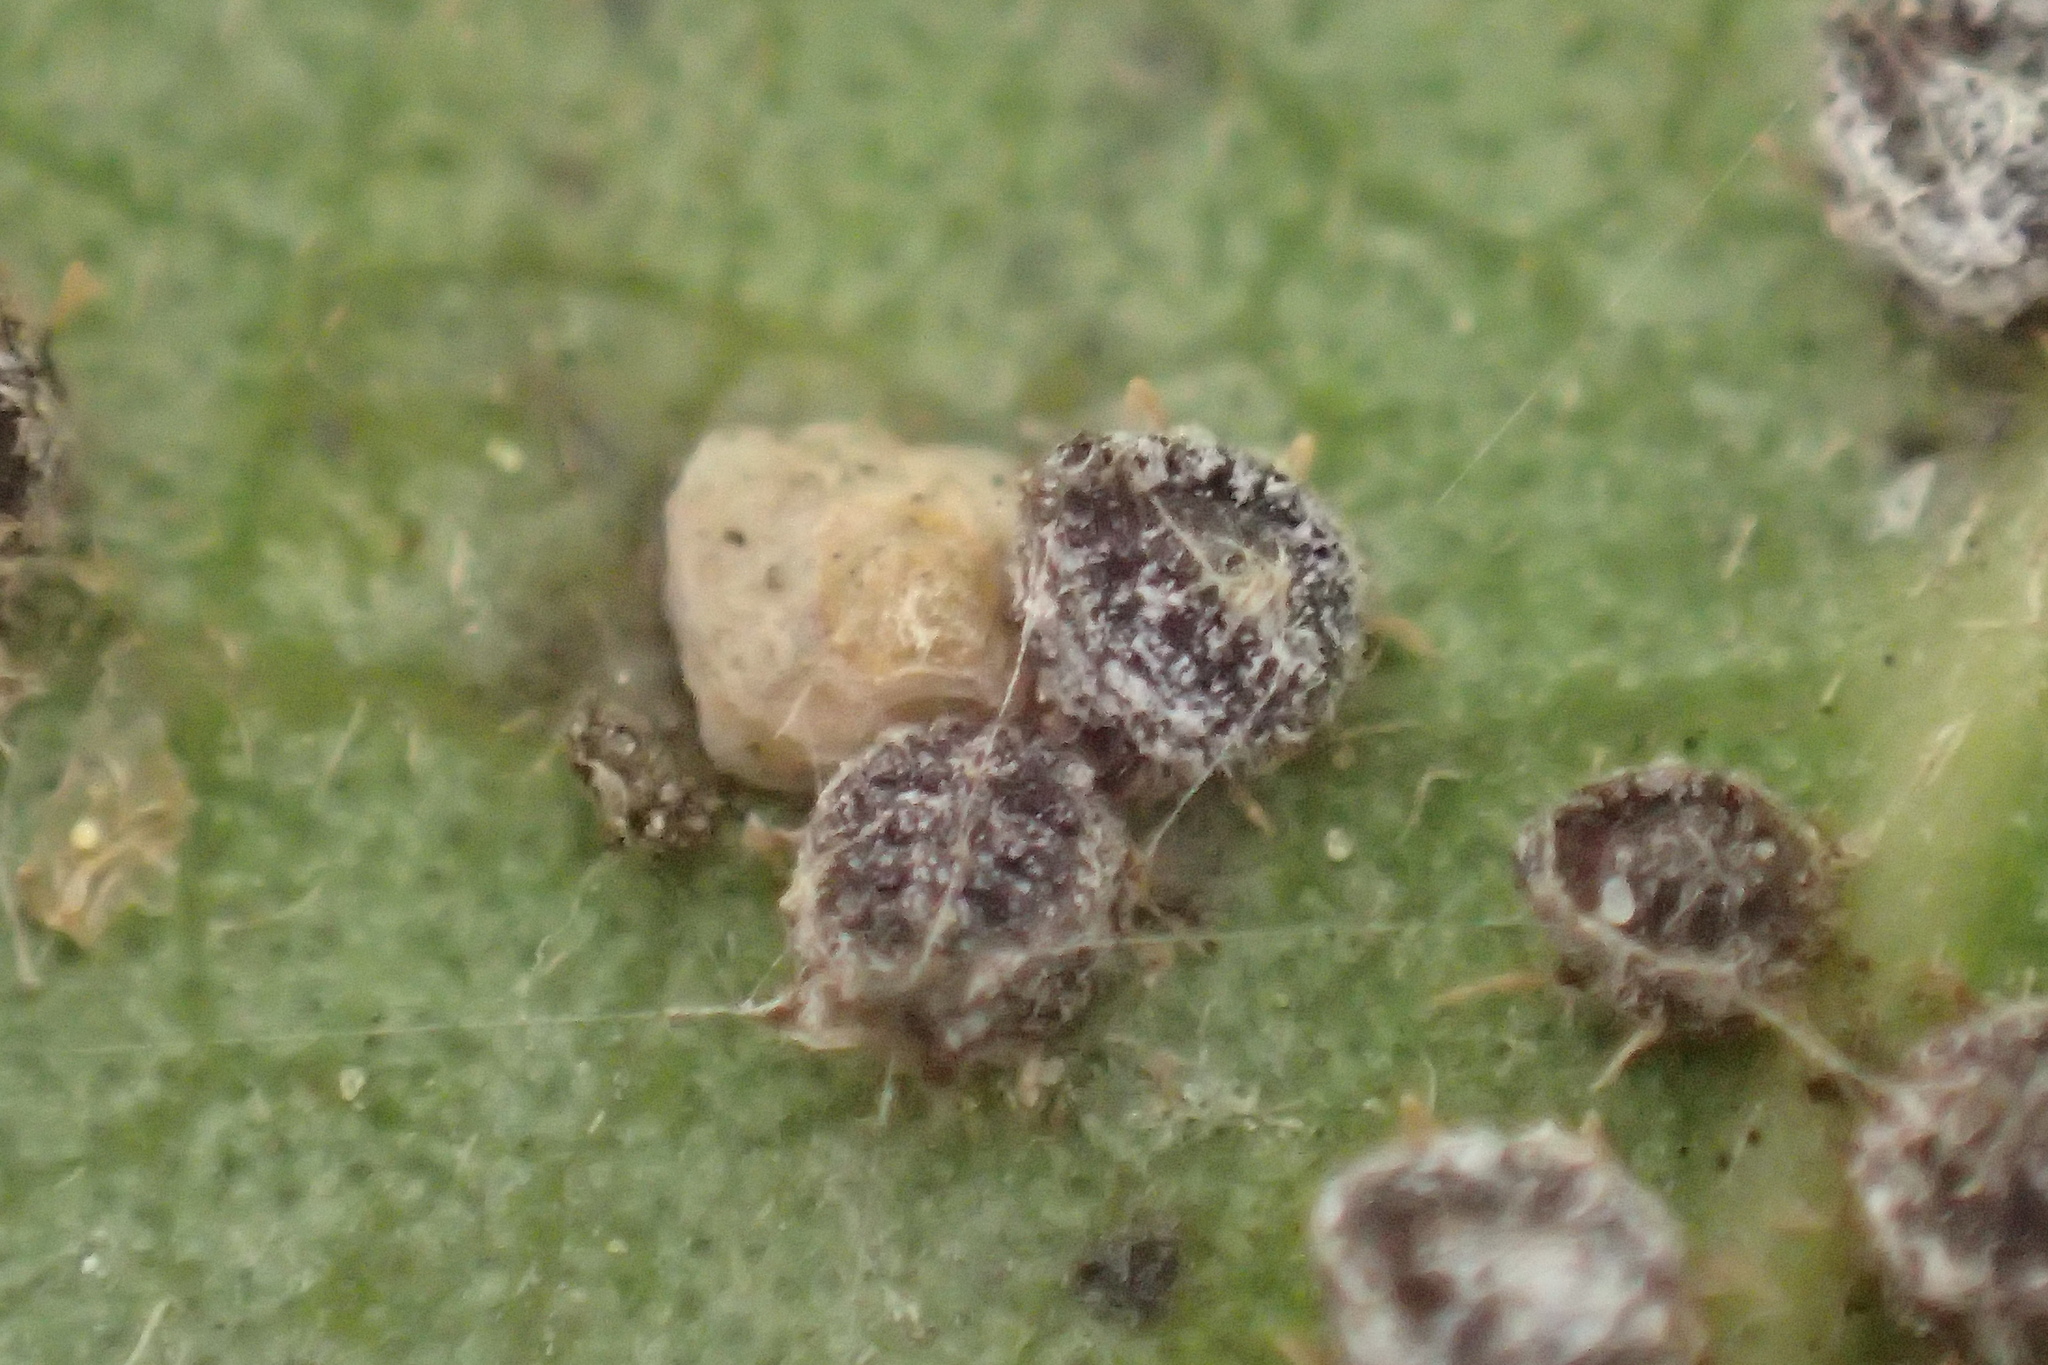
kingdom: Animalia
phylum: Arthropoda
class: Insecta
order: Hemiptera
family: Aphididae
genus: Euthoracaphis
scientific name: Euthoracaphis umbellulariae
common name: Aphid
